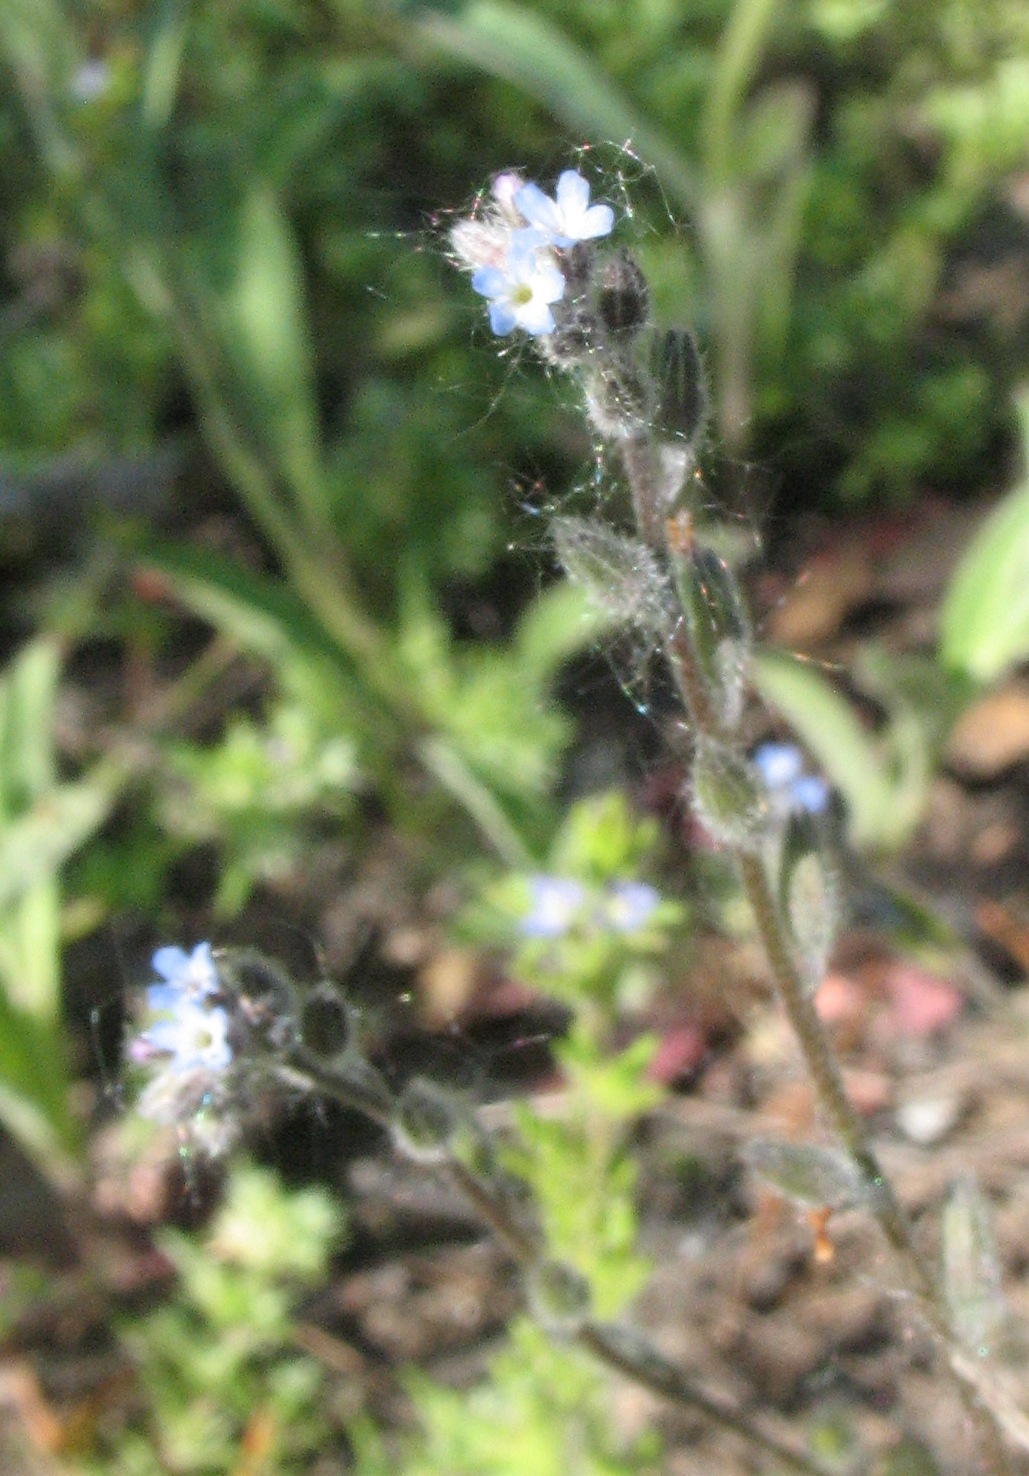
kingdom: Plantae
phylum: Tracheophyta
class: Magnoliopsida
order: Boraginales
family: Boraginaceae
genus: Myosotis
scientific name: Myosotis stricta
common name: Strict forget-me-not
